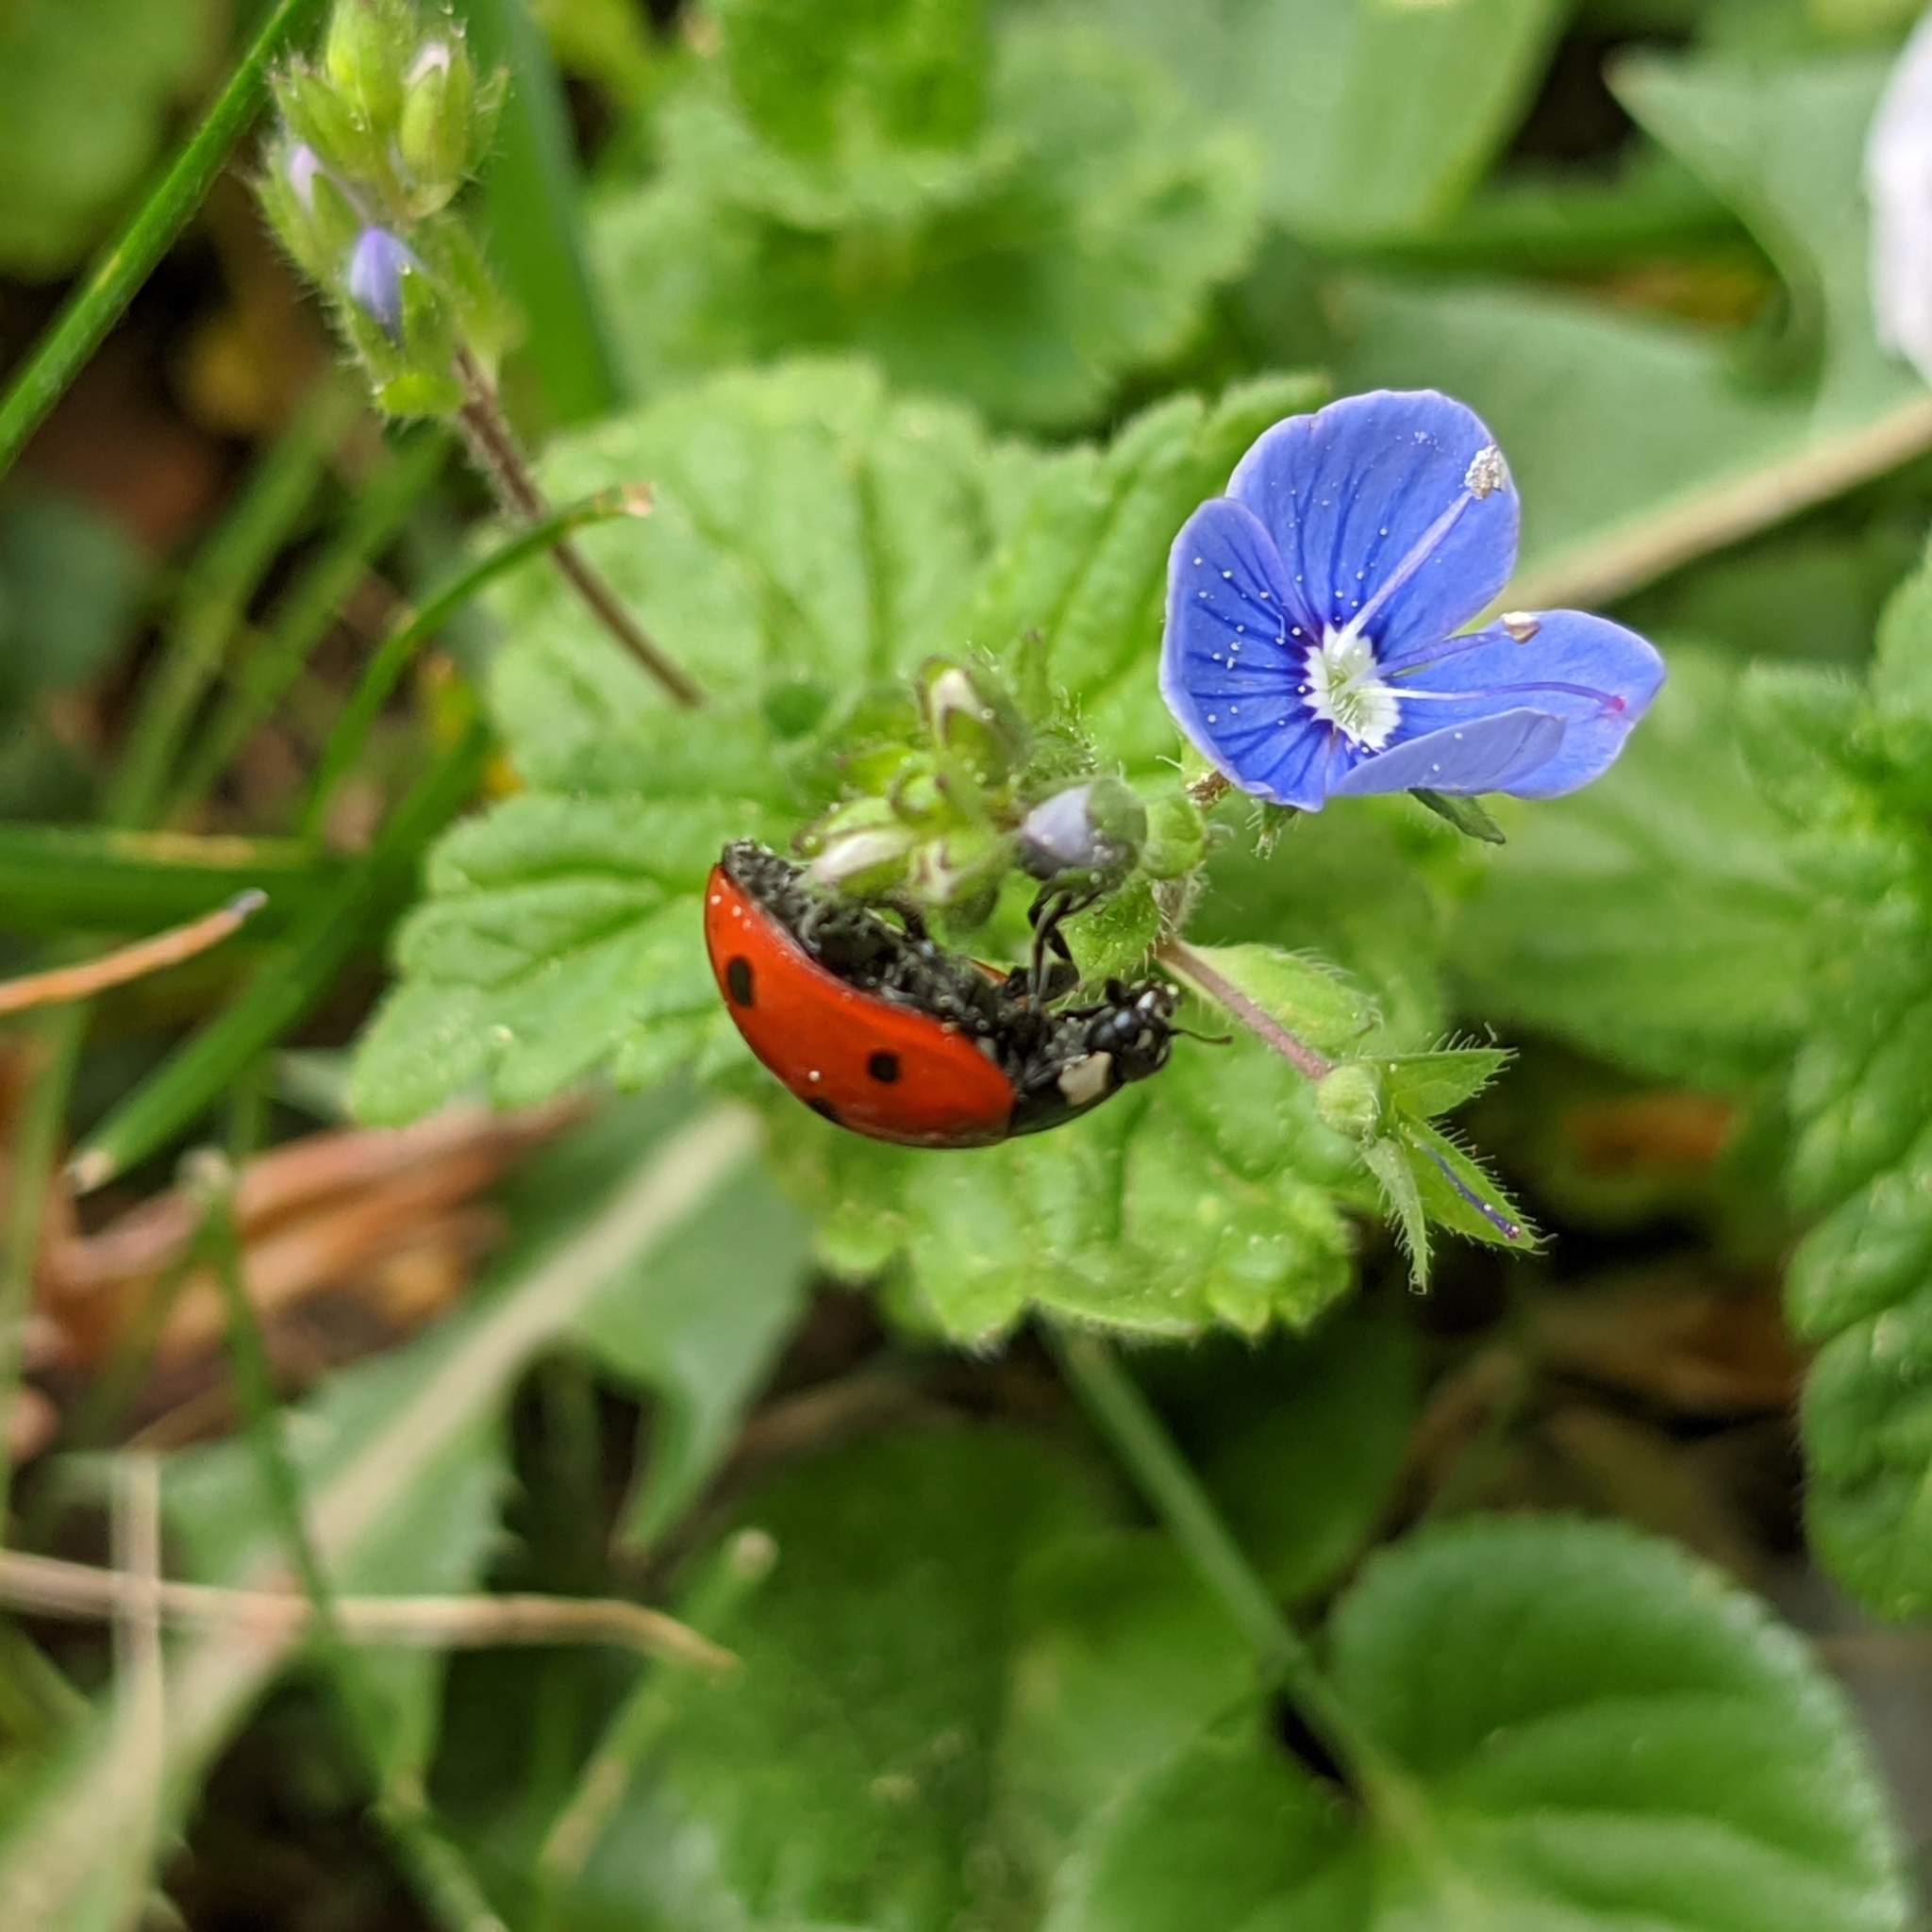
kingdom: Animalia
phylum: Arthropoda
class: Insecta
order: Coleoptera
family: Coccinellidae
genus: Coccinella
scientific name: Coccinella septempunctata
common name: Sevenspotted lady beetle
